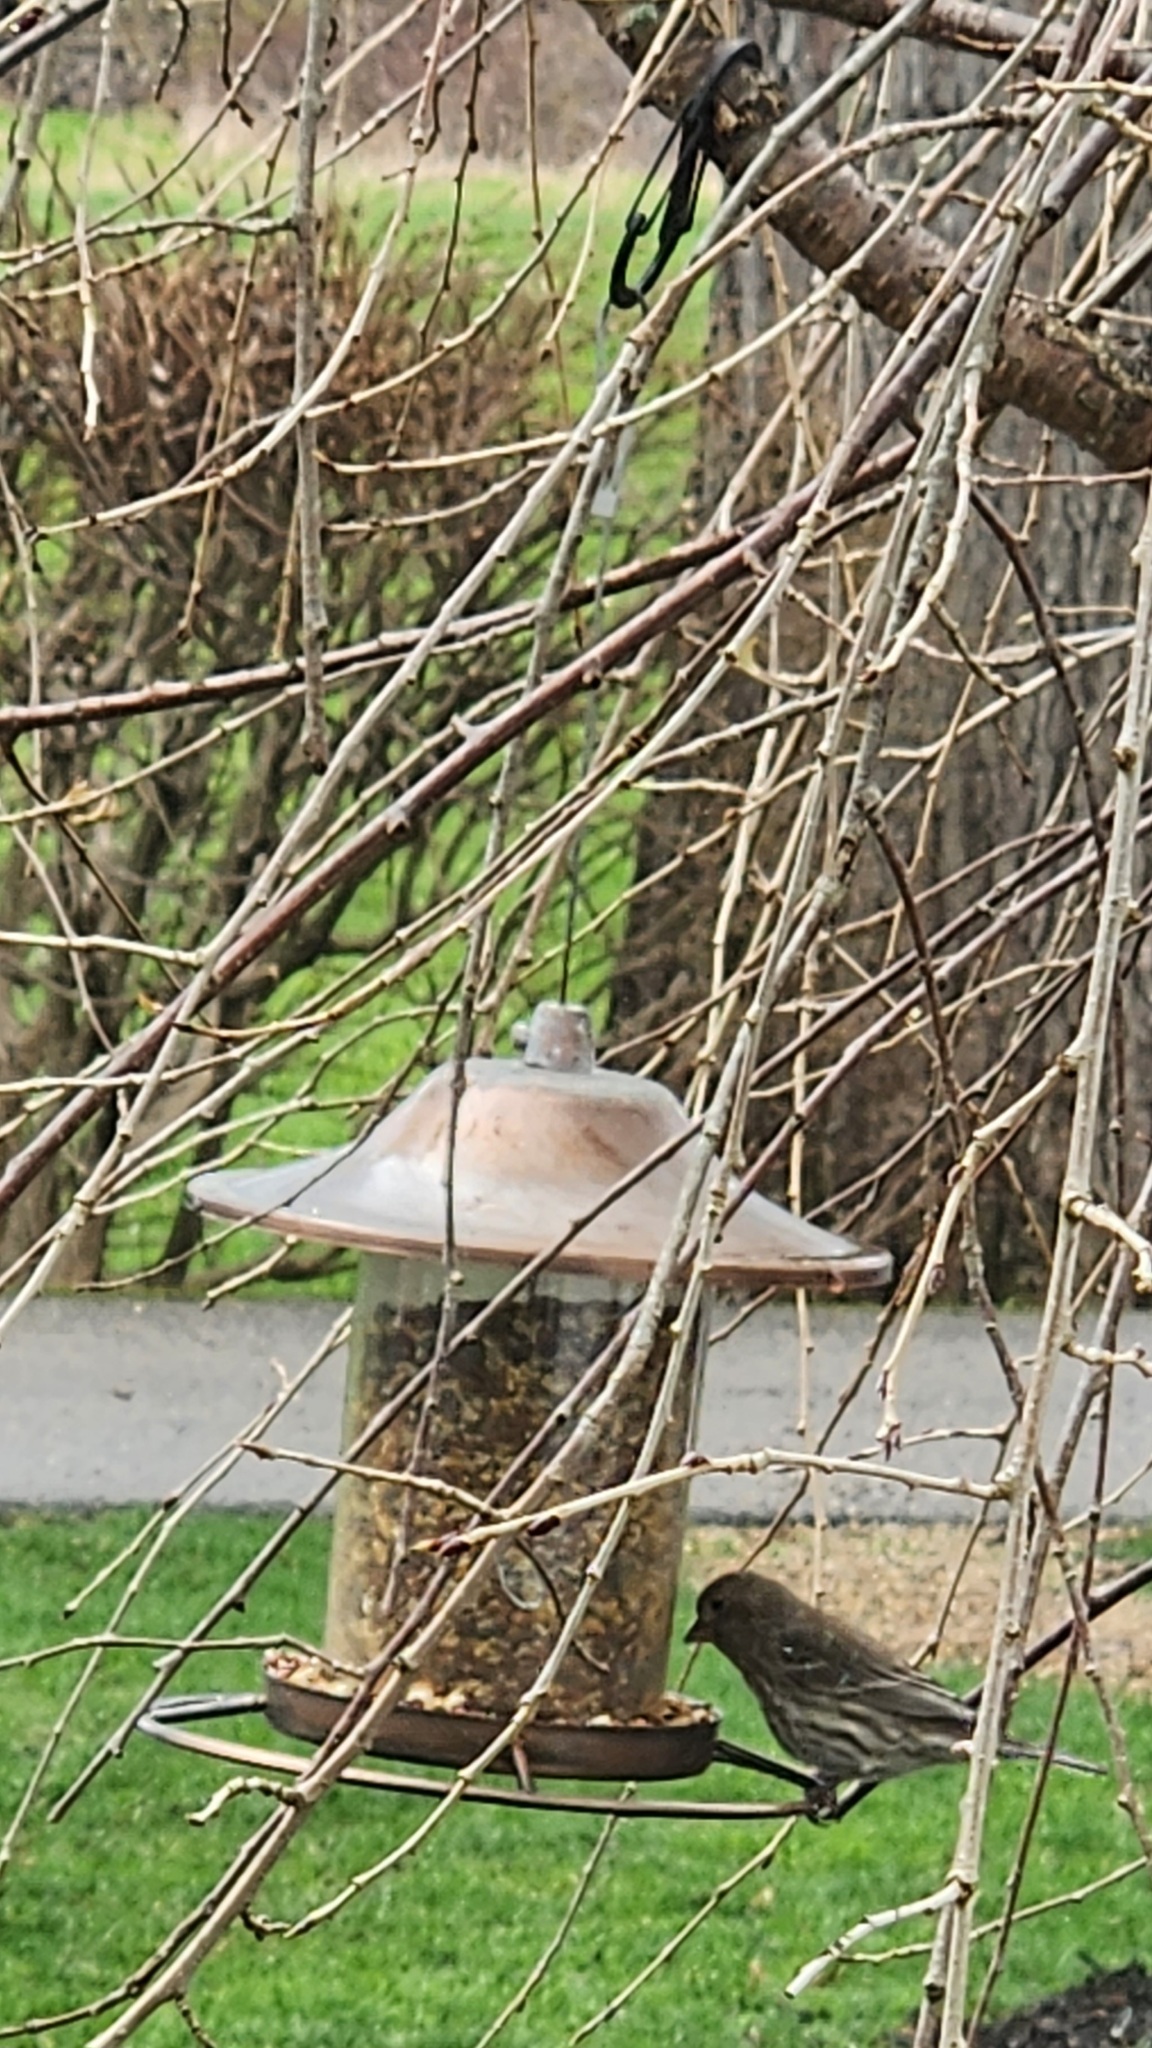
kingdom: Animalia
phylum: Chordata
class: Aves
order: Passeriformes
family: Fringillidae
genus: Haemorhous
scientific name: Haemorhous mexicanus
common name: House finch
